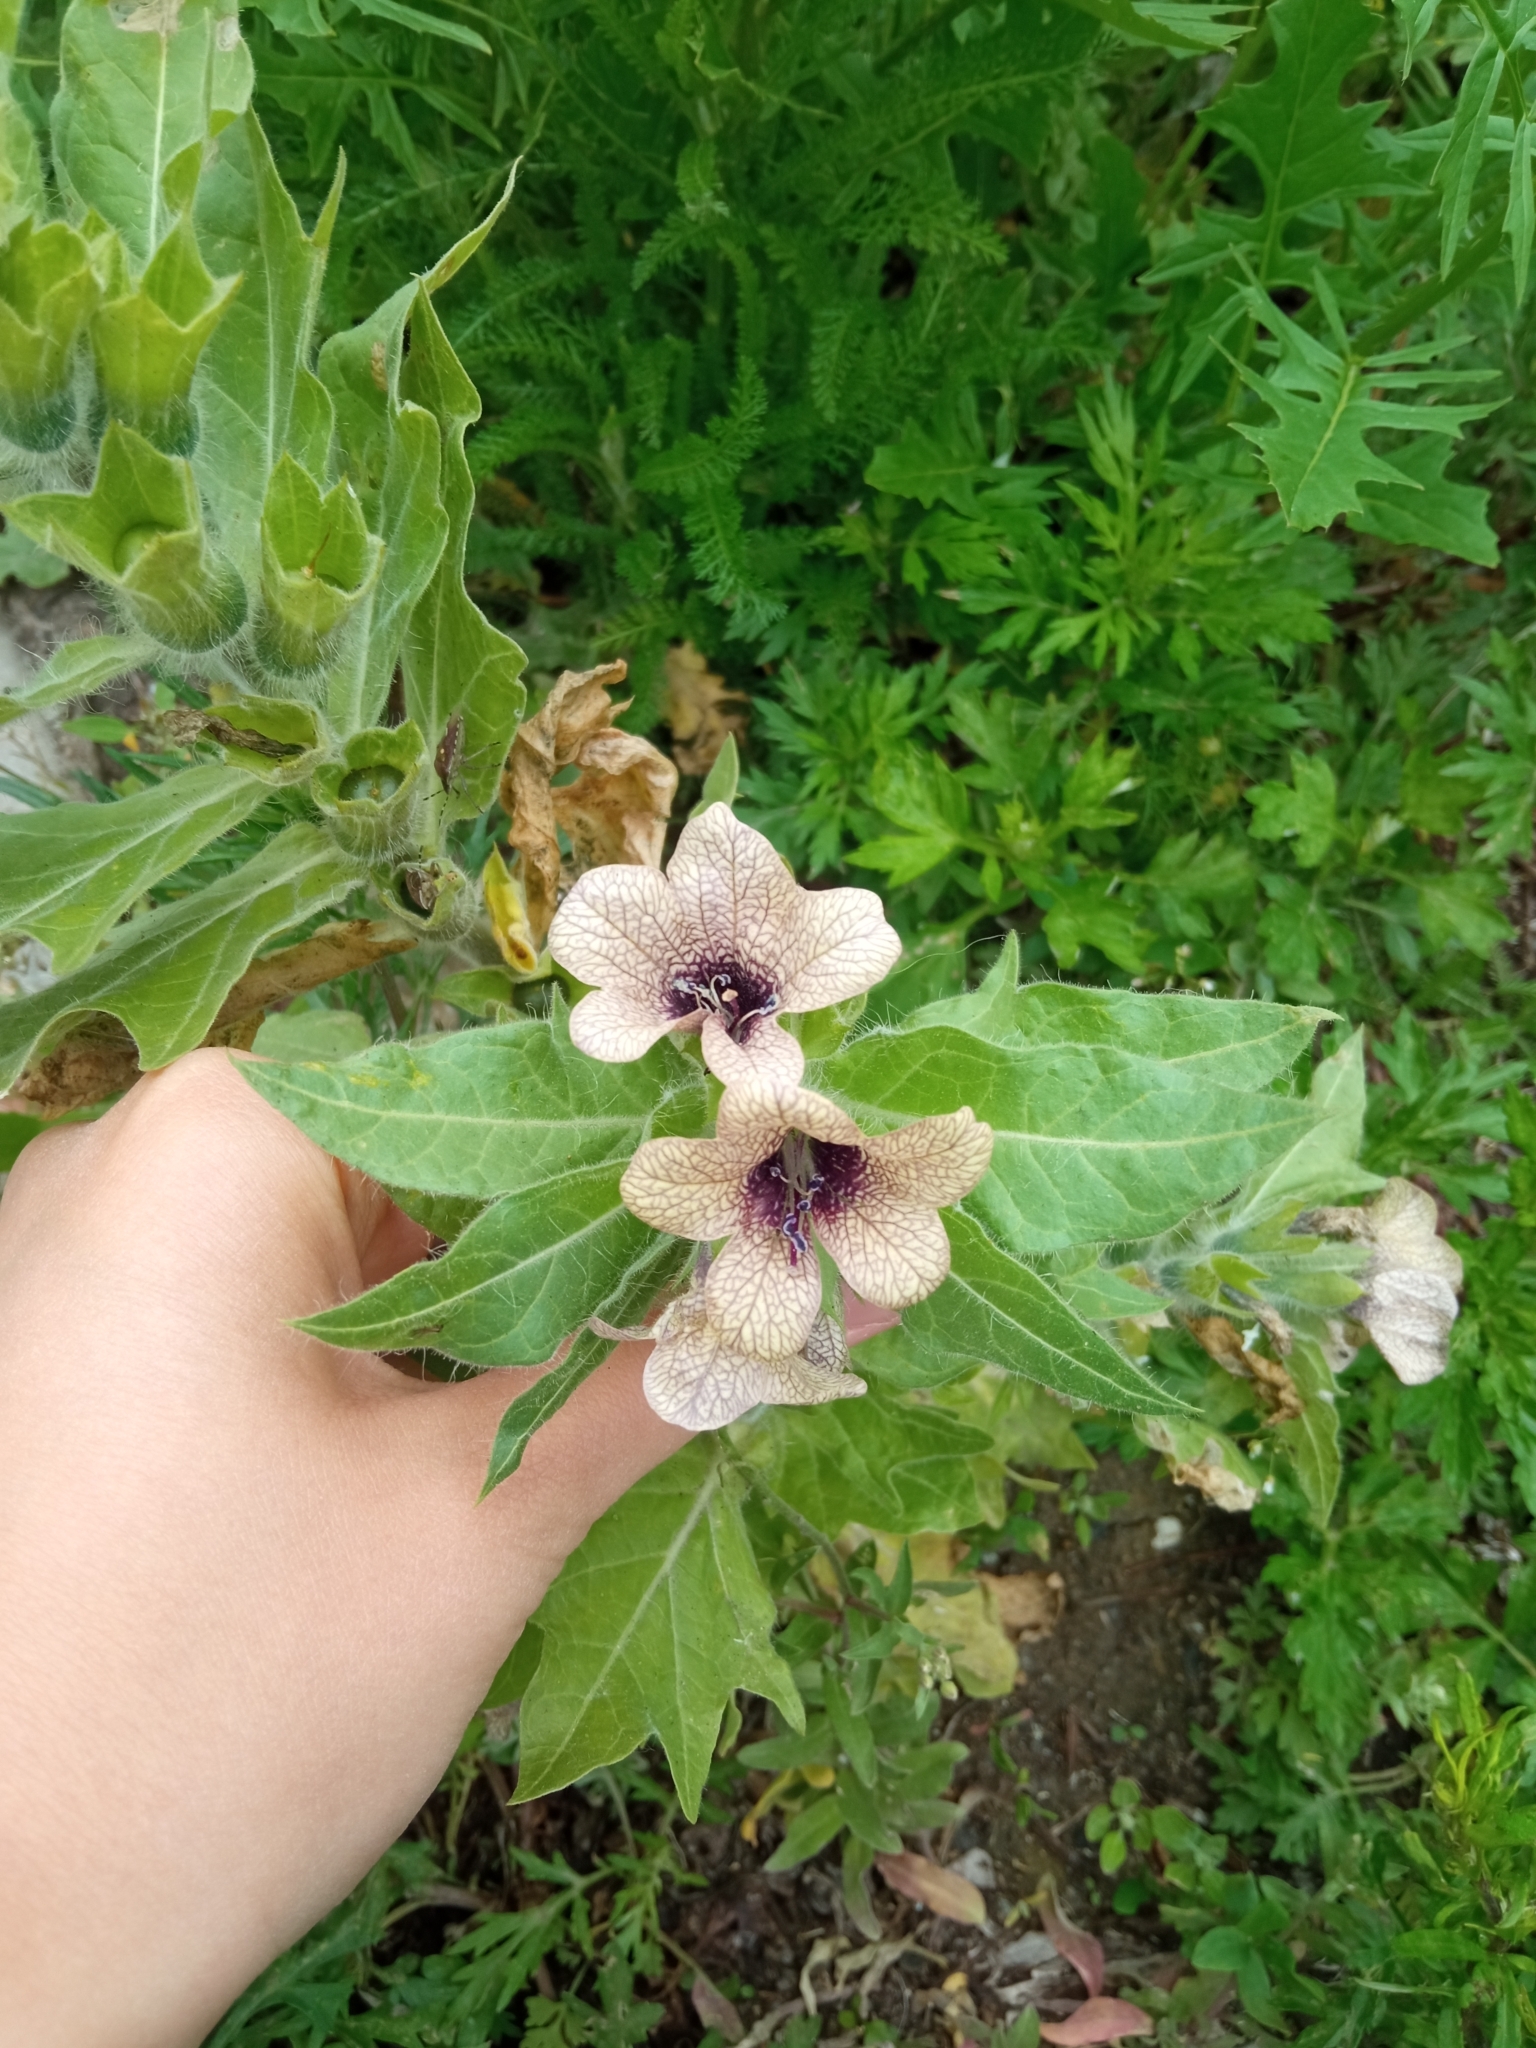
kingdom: Plantae
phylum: Tracheophyta
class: Magnoliopsida
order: Solanales
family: Solanaceae
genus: Hyoscyamus
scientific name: Hyoscyamus niger
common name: Henbane
